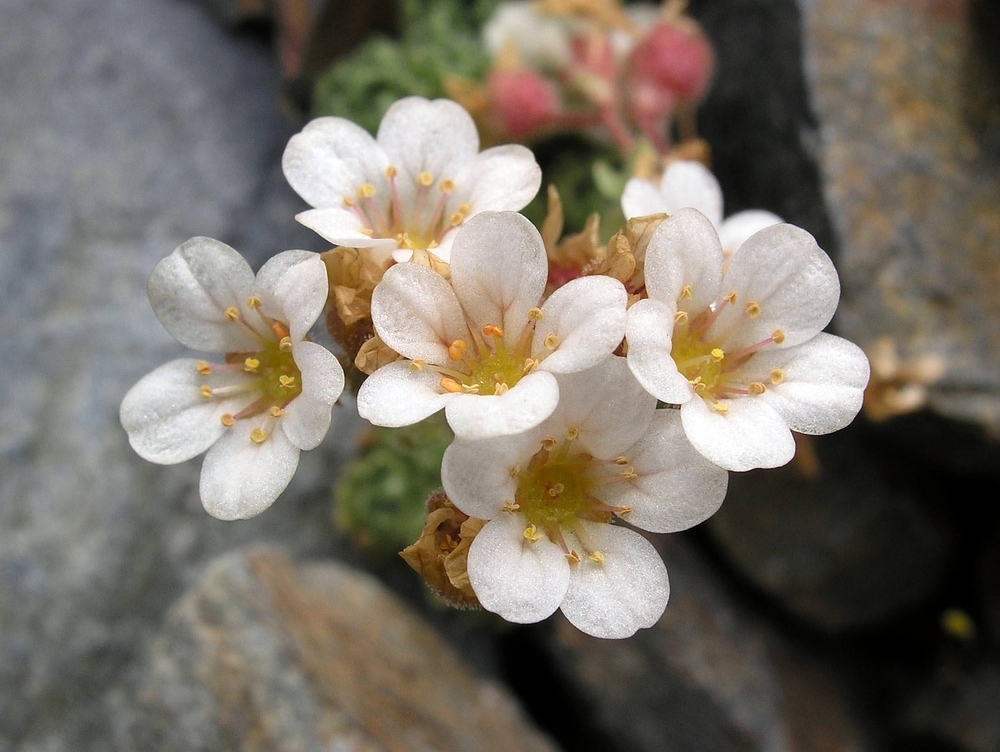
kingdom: Plantae
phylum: Tracheophyta
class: Magnoliopsida
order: Saxifragales
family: Saxifragaceae
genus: Saxifraga
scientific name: Saxifraga pubescens
